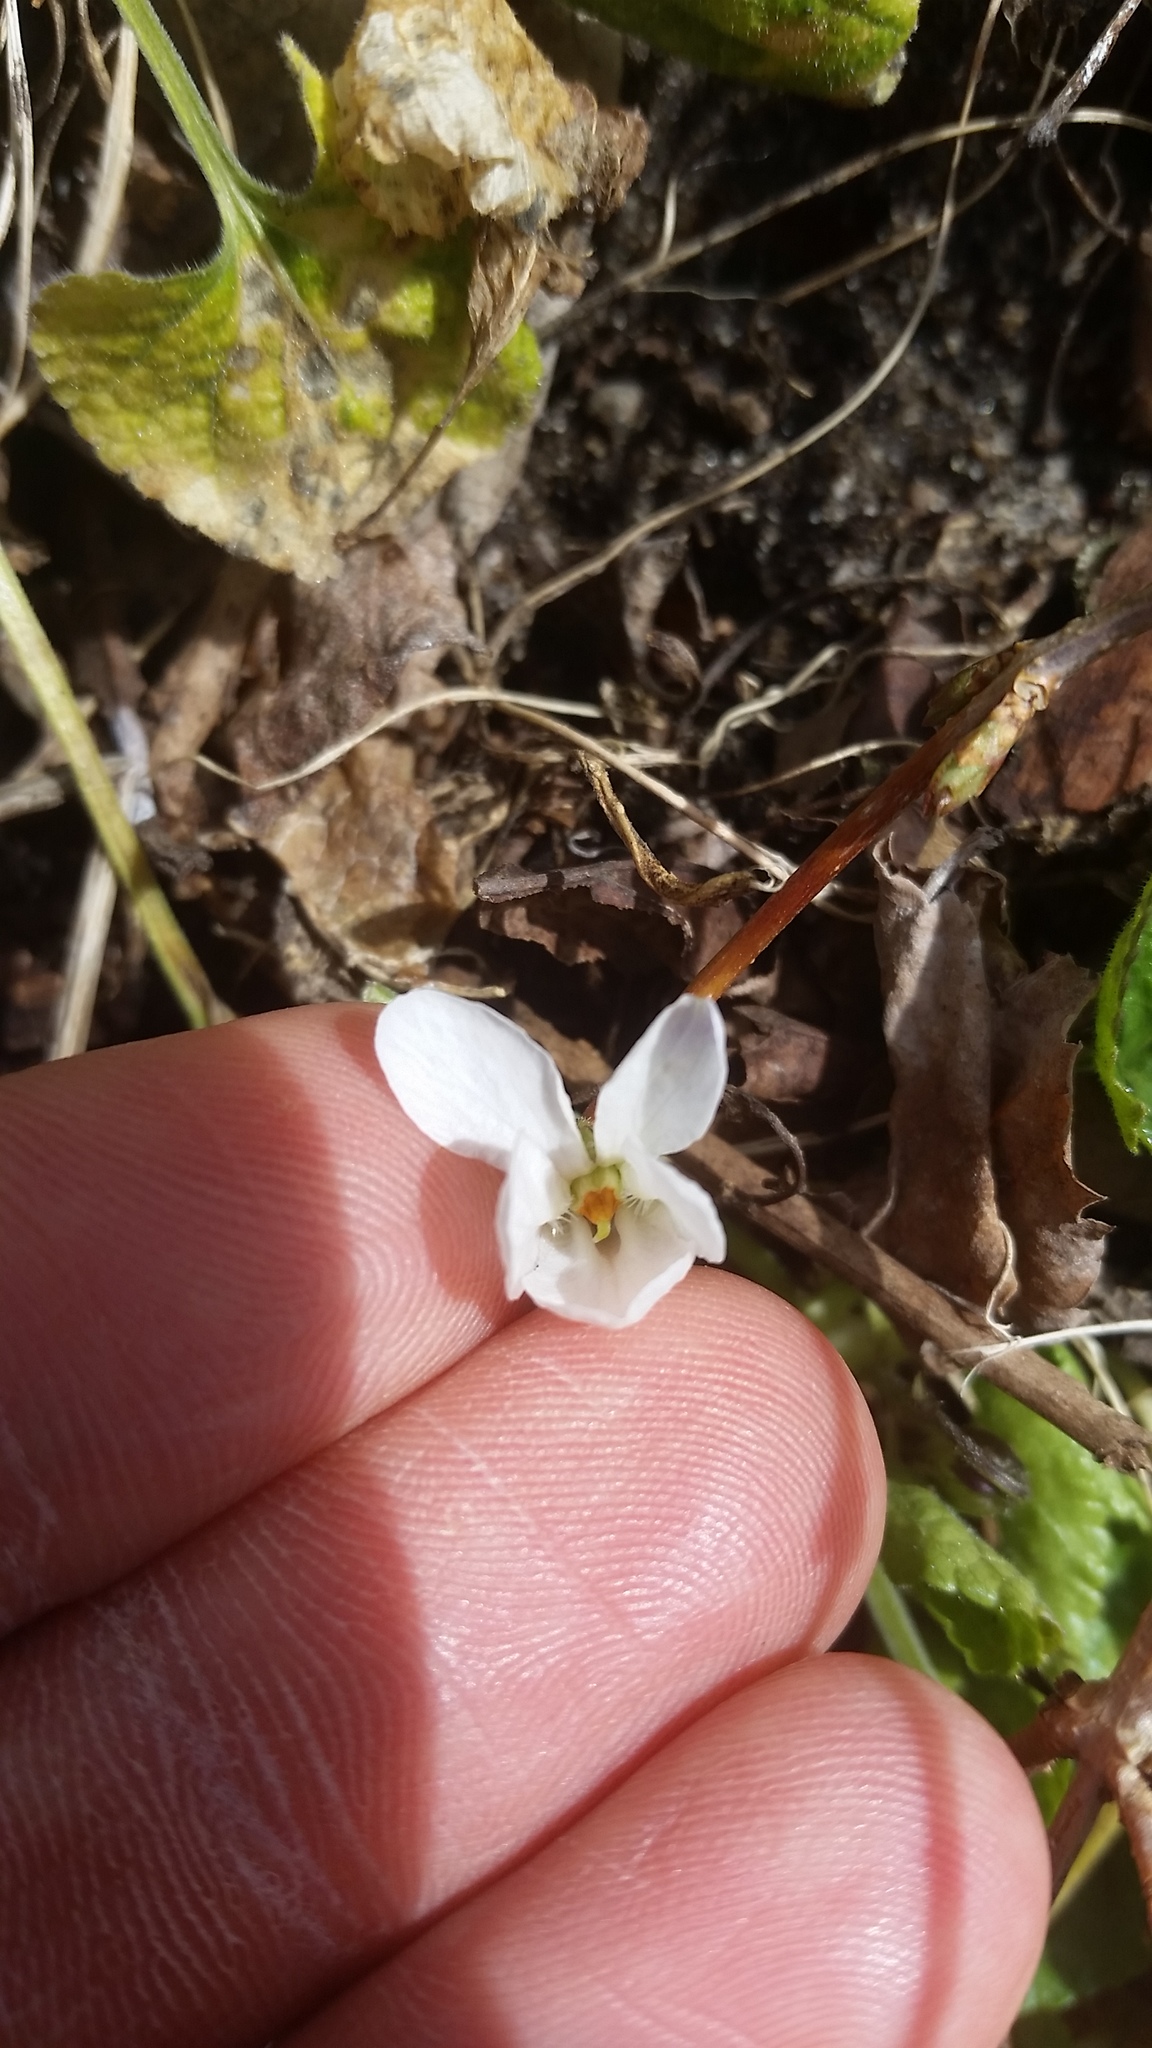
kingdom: Plantae
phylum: Tracheophyta
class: Magnoliopsida
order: Malpighiales
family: Violaceae
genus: Viola
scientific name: Viola odorata
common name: Sweet violet
